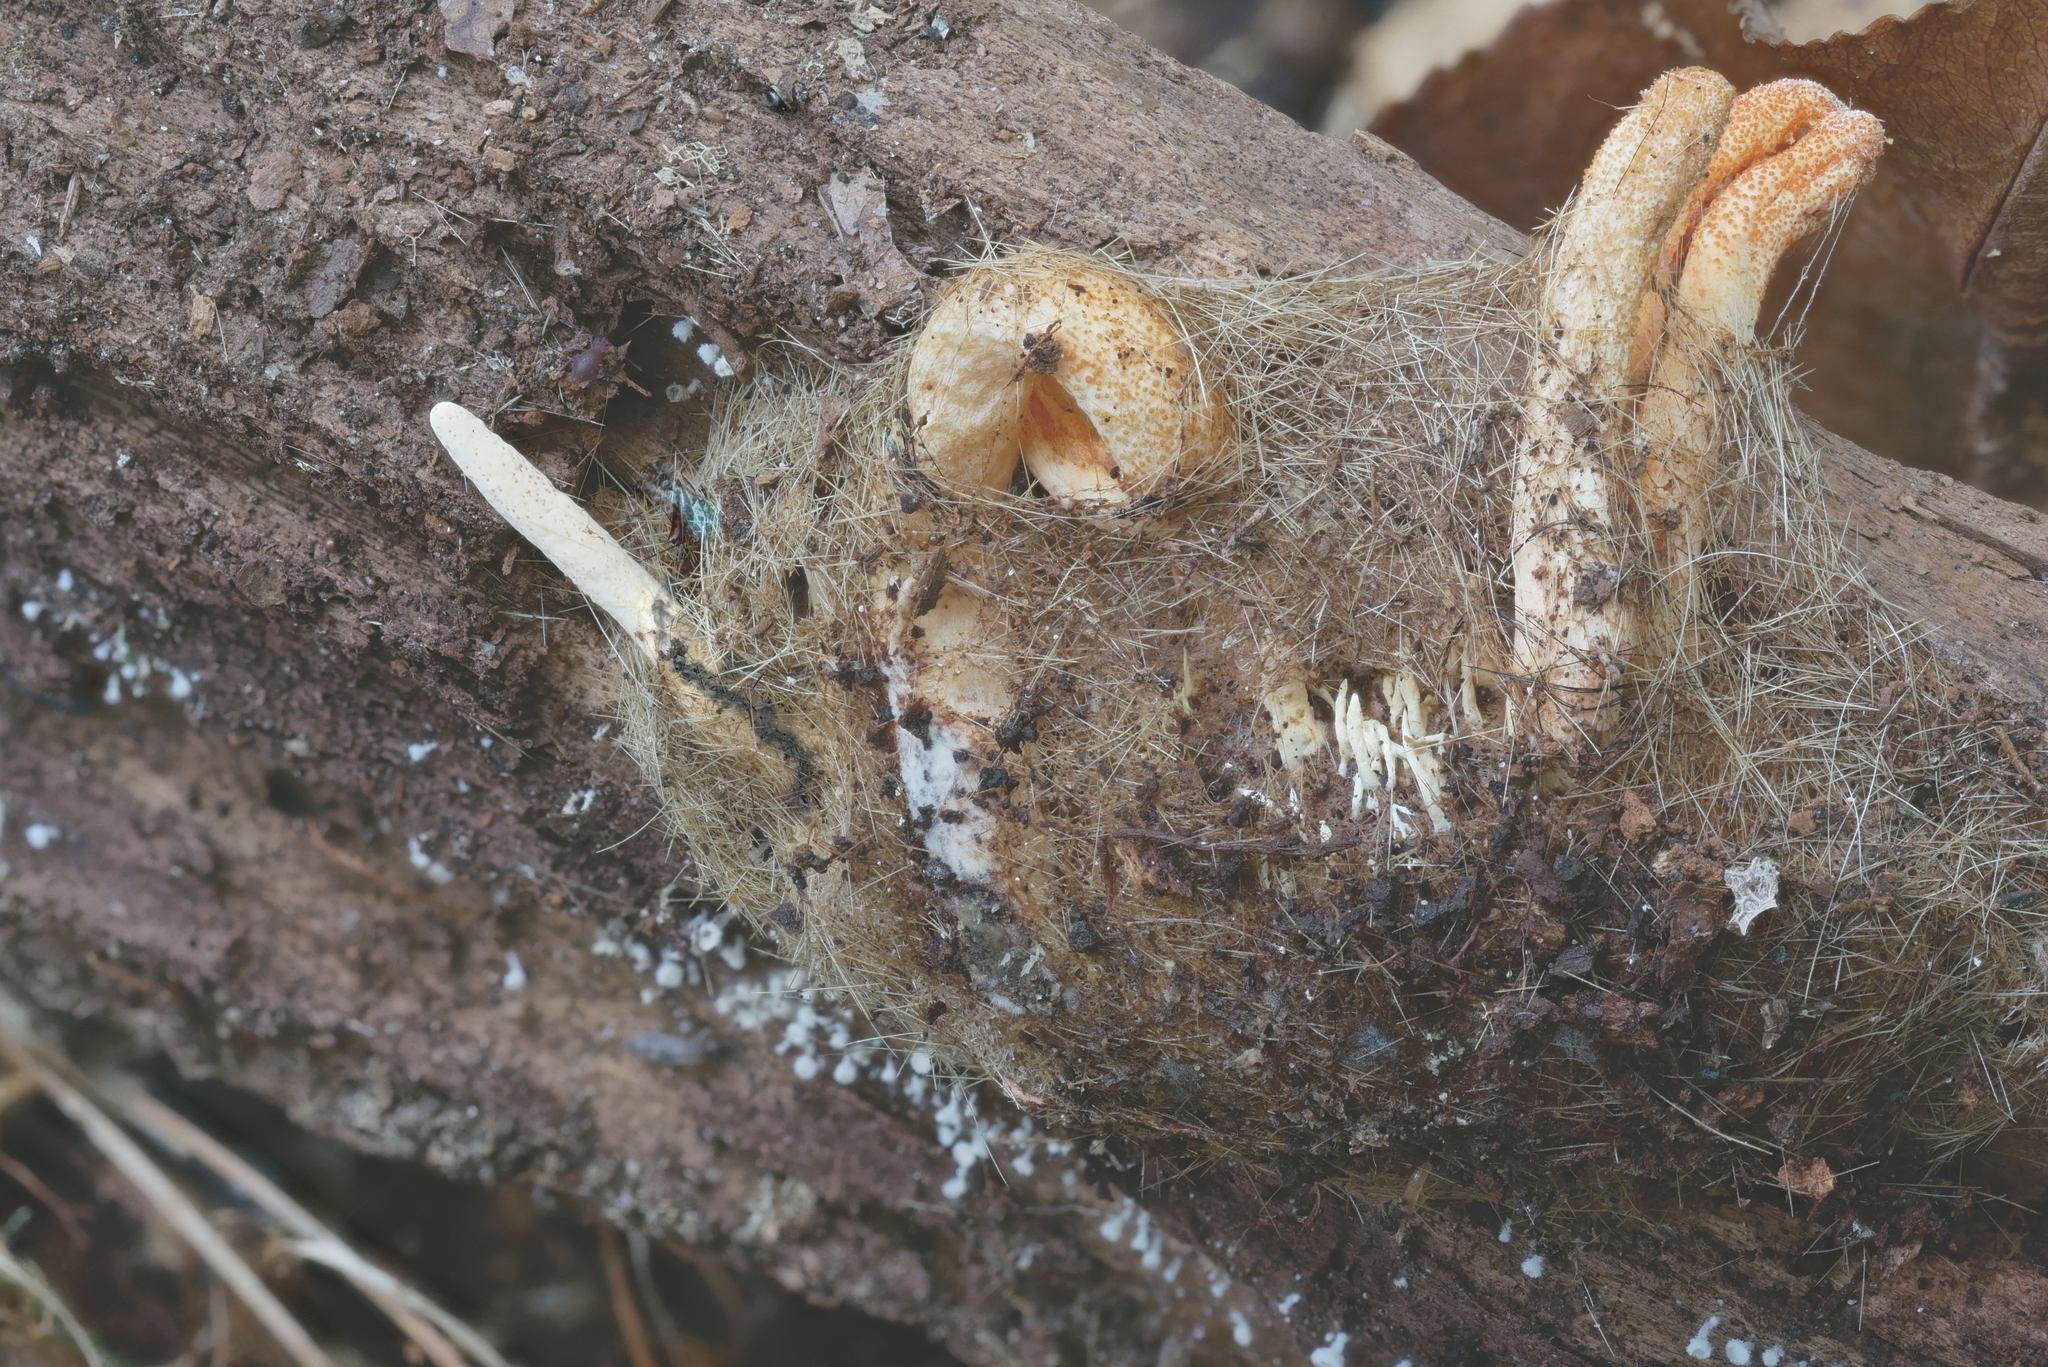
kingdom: Fungi
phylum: Ascomycota
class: Sordariomycetes
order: Hypocreales
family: Cordycipitaceae
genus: Cordyceps
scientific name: Cordyceps militaris
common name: Scarlet caterpillar fungus
